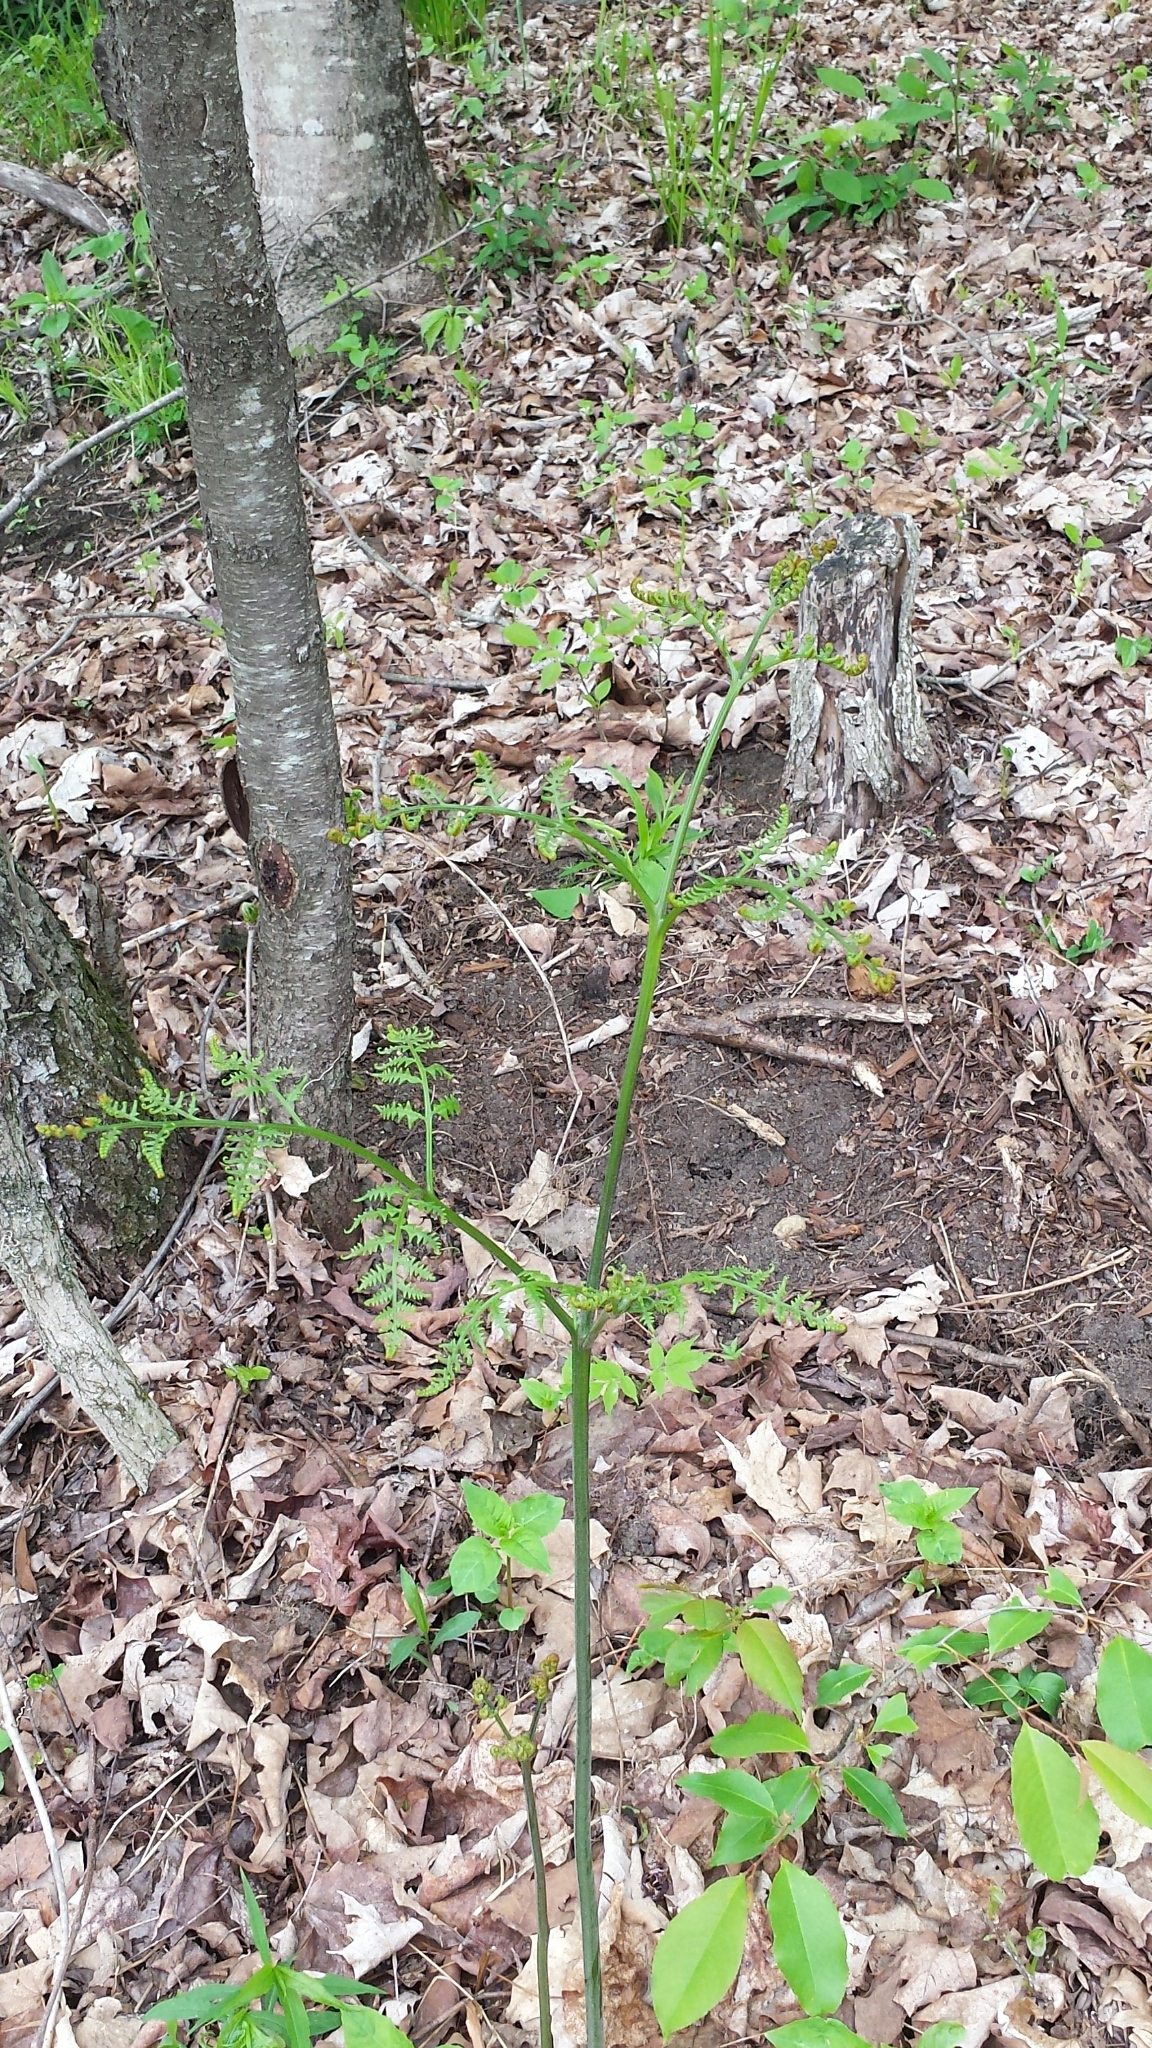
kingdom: Plantae
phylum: Tracheophyta
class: Polypodiopsida
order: Polypodiales
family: Dennstaedtiaceae
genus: Pteridium
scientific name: Pteridium aquilinum
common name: Bracken
